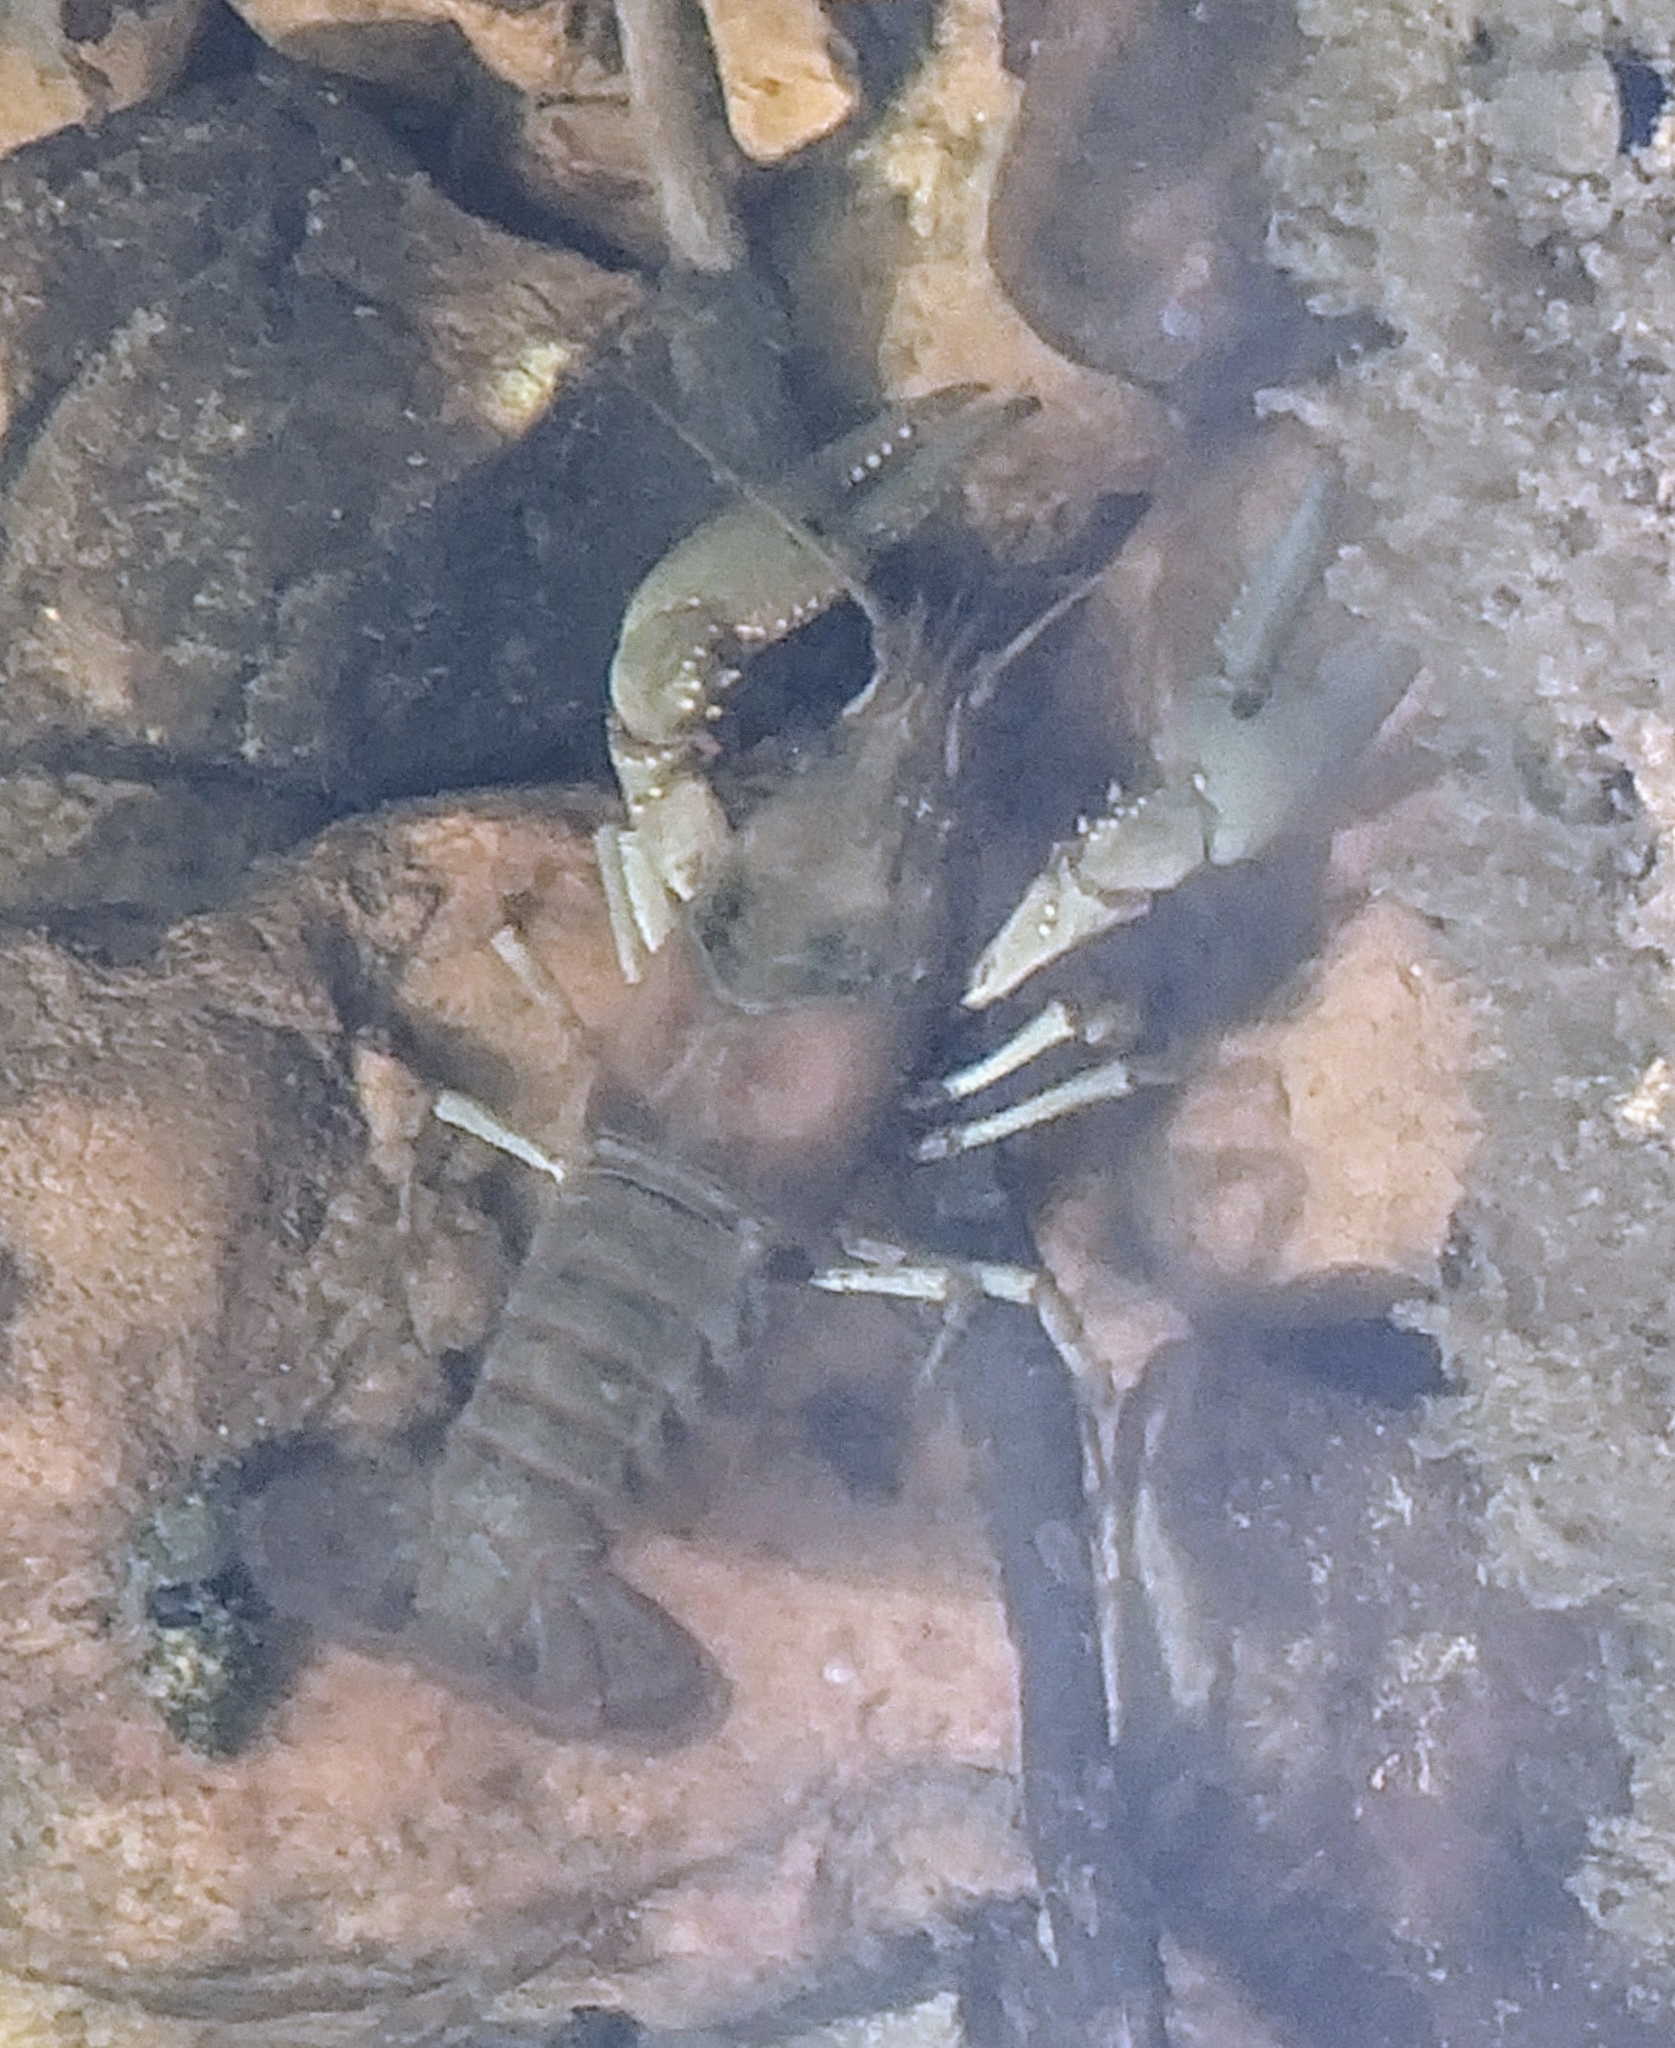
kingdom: Animalia
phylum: Arthropoda
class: Malacostraca
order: Decapoda
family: Cambaridae
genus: Faxonius
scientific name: Faxonius punctimanus
